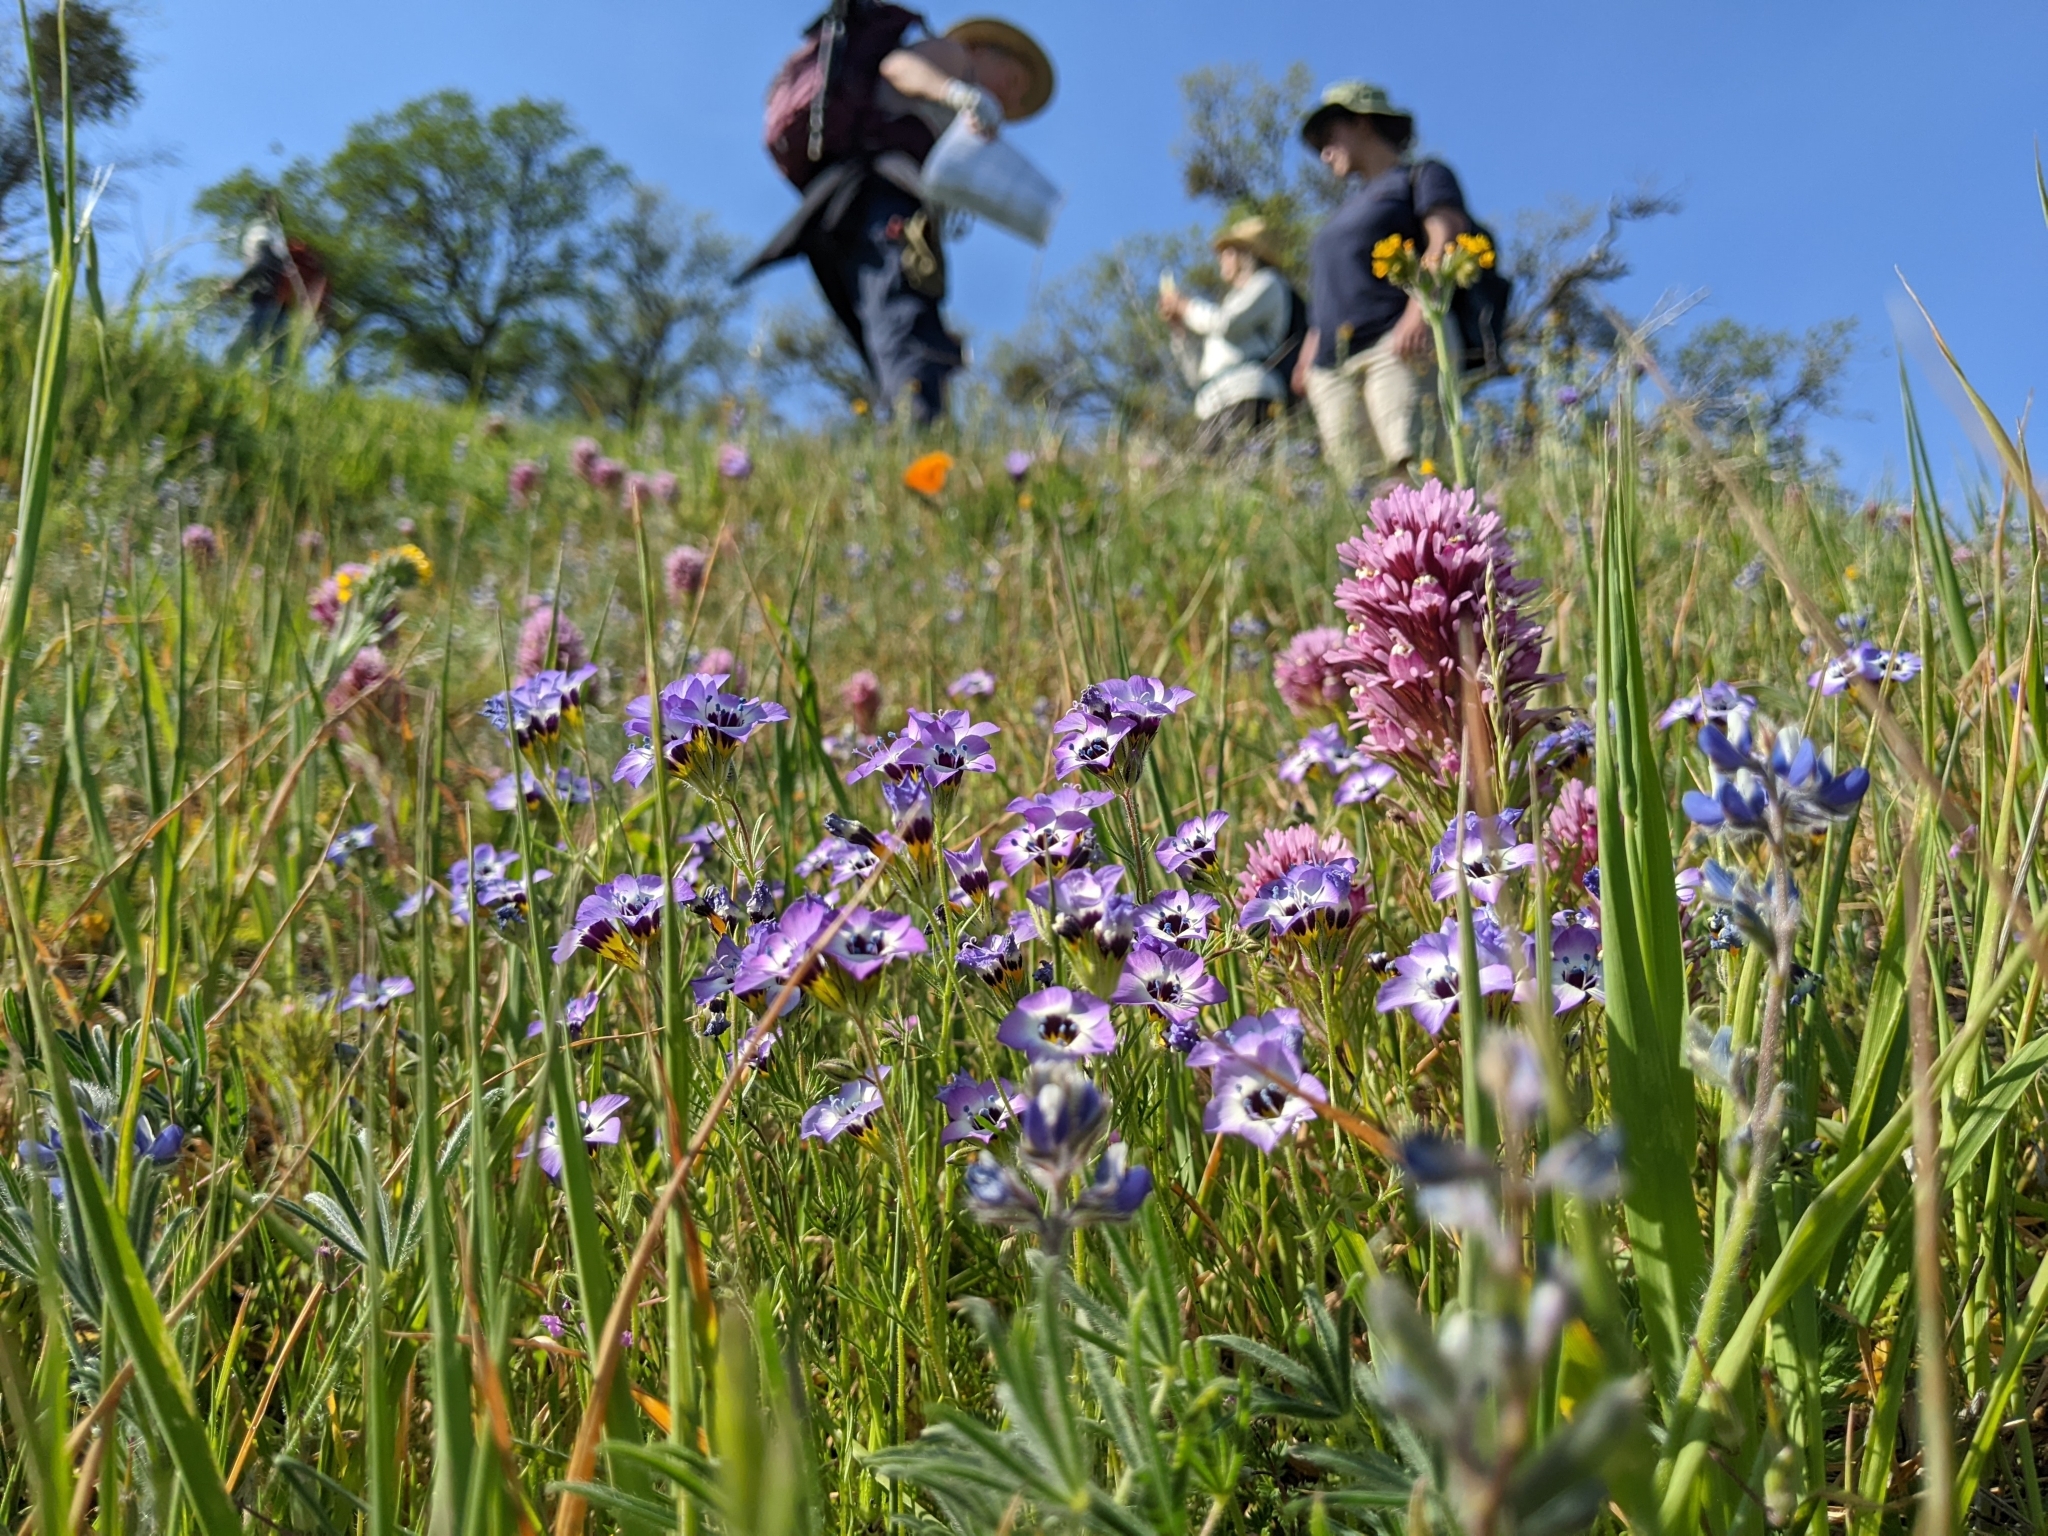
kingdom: Plantae
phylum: Tracheophyta
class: Magnoliopsida
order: Ericales
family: Polemoniaceae
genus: Gilia
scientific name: Gilia tricolor
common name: Bird's-eyes
